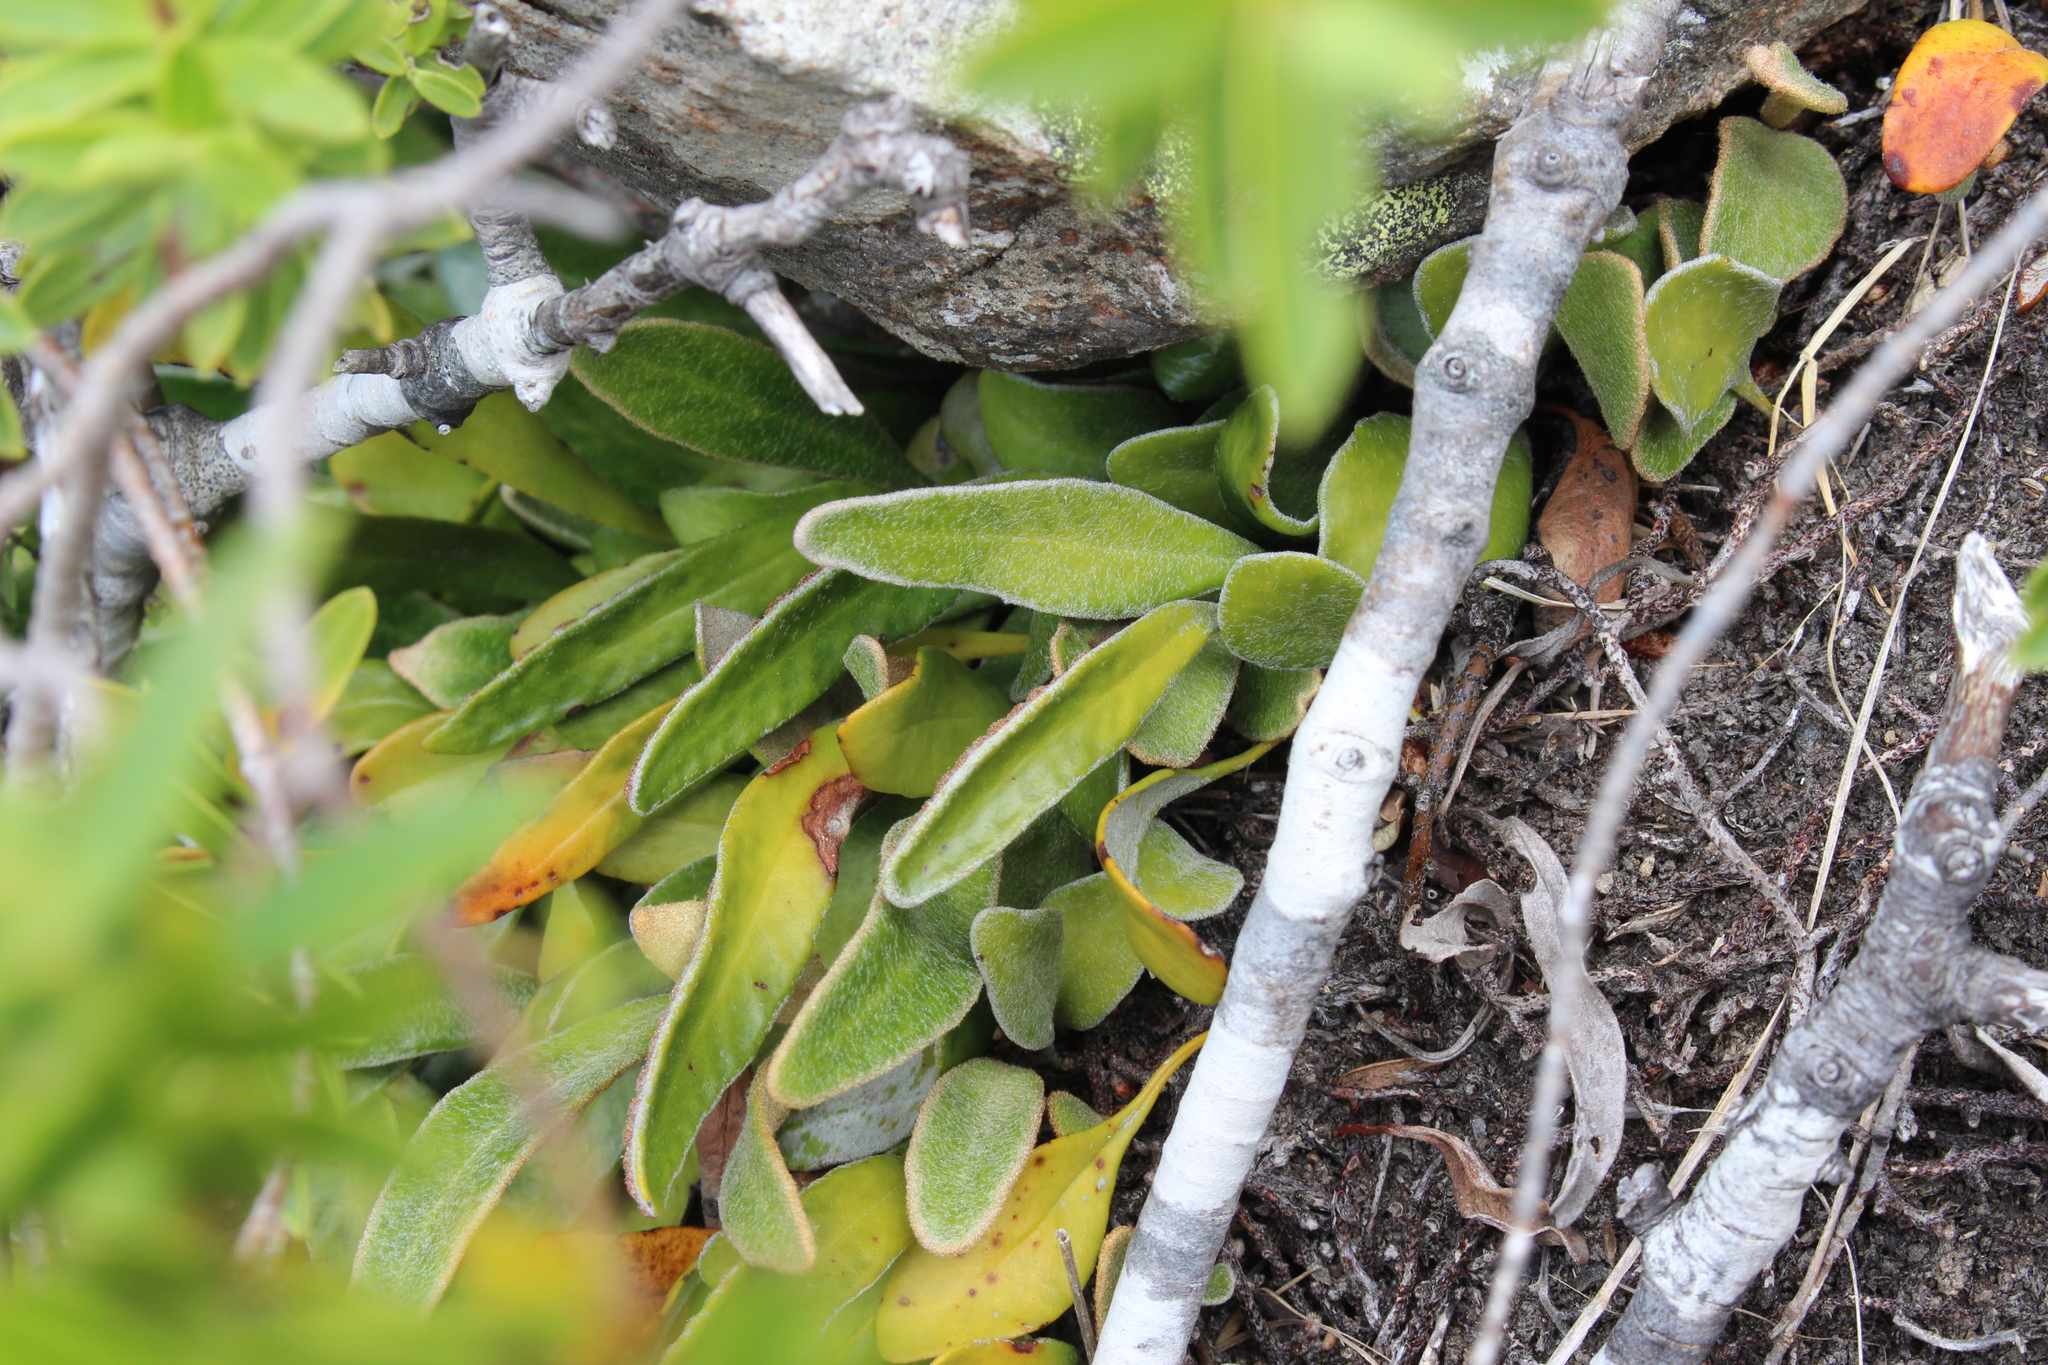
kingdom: Plantae
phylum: Tracheophyta
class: Polypodiopsida
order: Polypodiales
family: Polypodiaceae
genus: Pyrrosia
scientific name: Pyrrosia eleagnifolia
